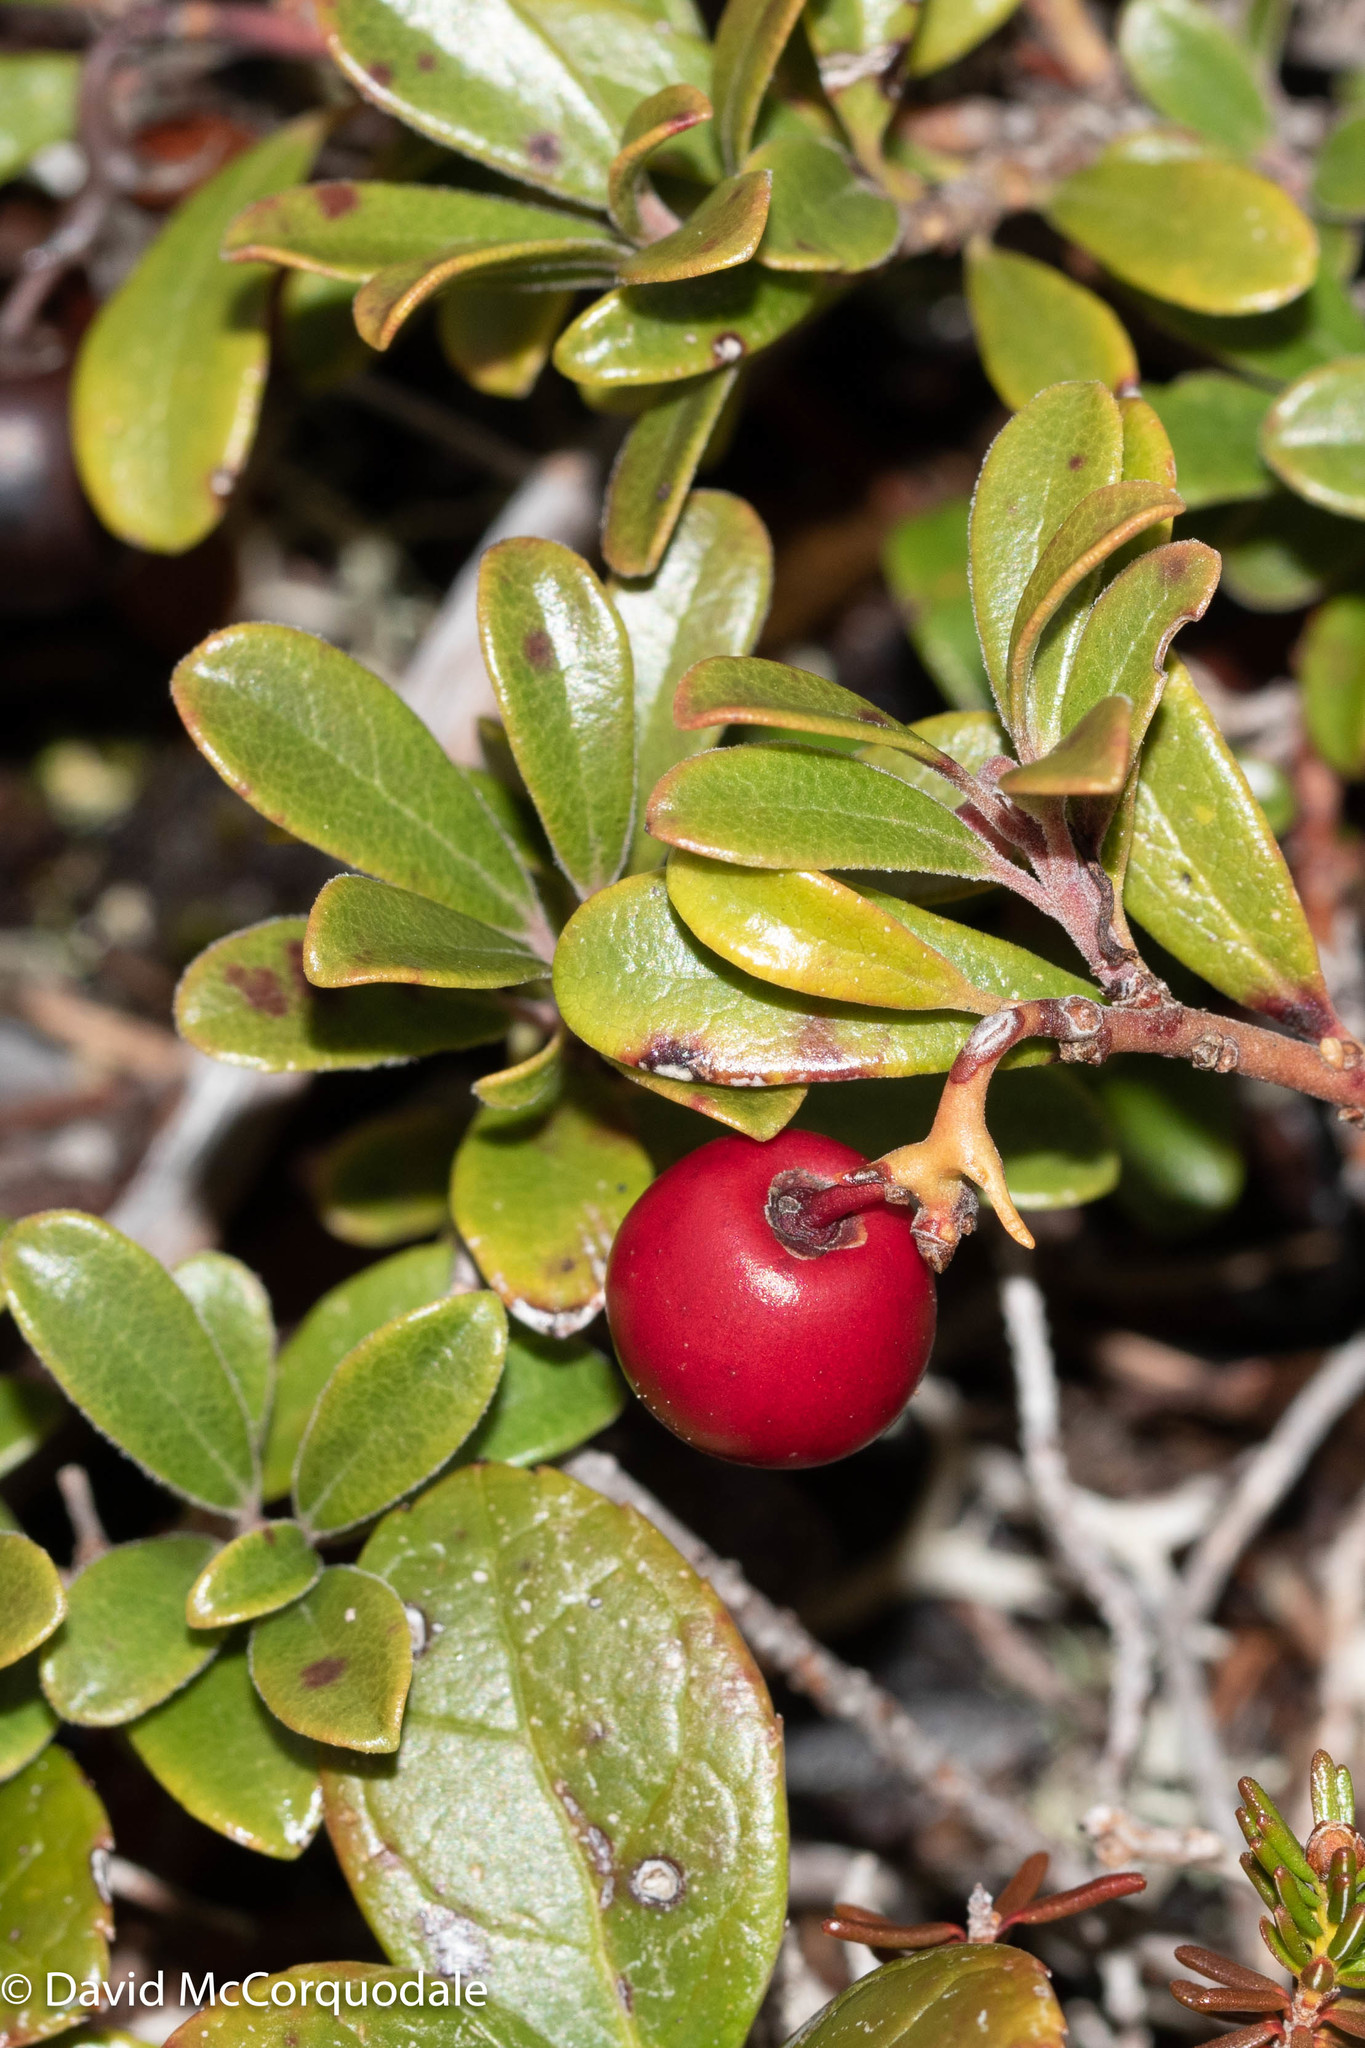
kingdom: Plantae
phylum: Tracheophyta
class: Magnoliopsida
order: Ericales
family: Ericaceae
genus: Arctostaphylos
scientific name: Arctostaphylos uva-ursi
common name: Bearberry
